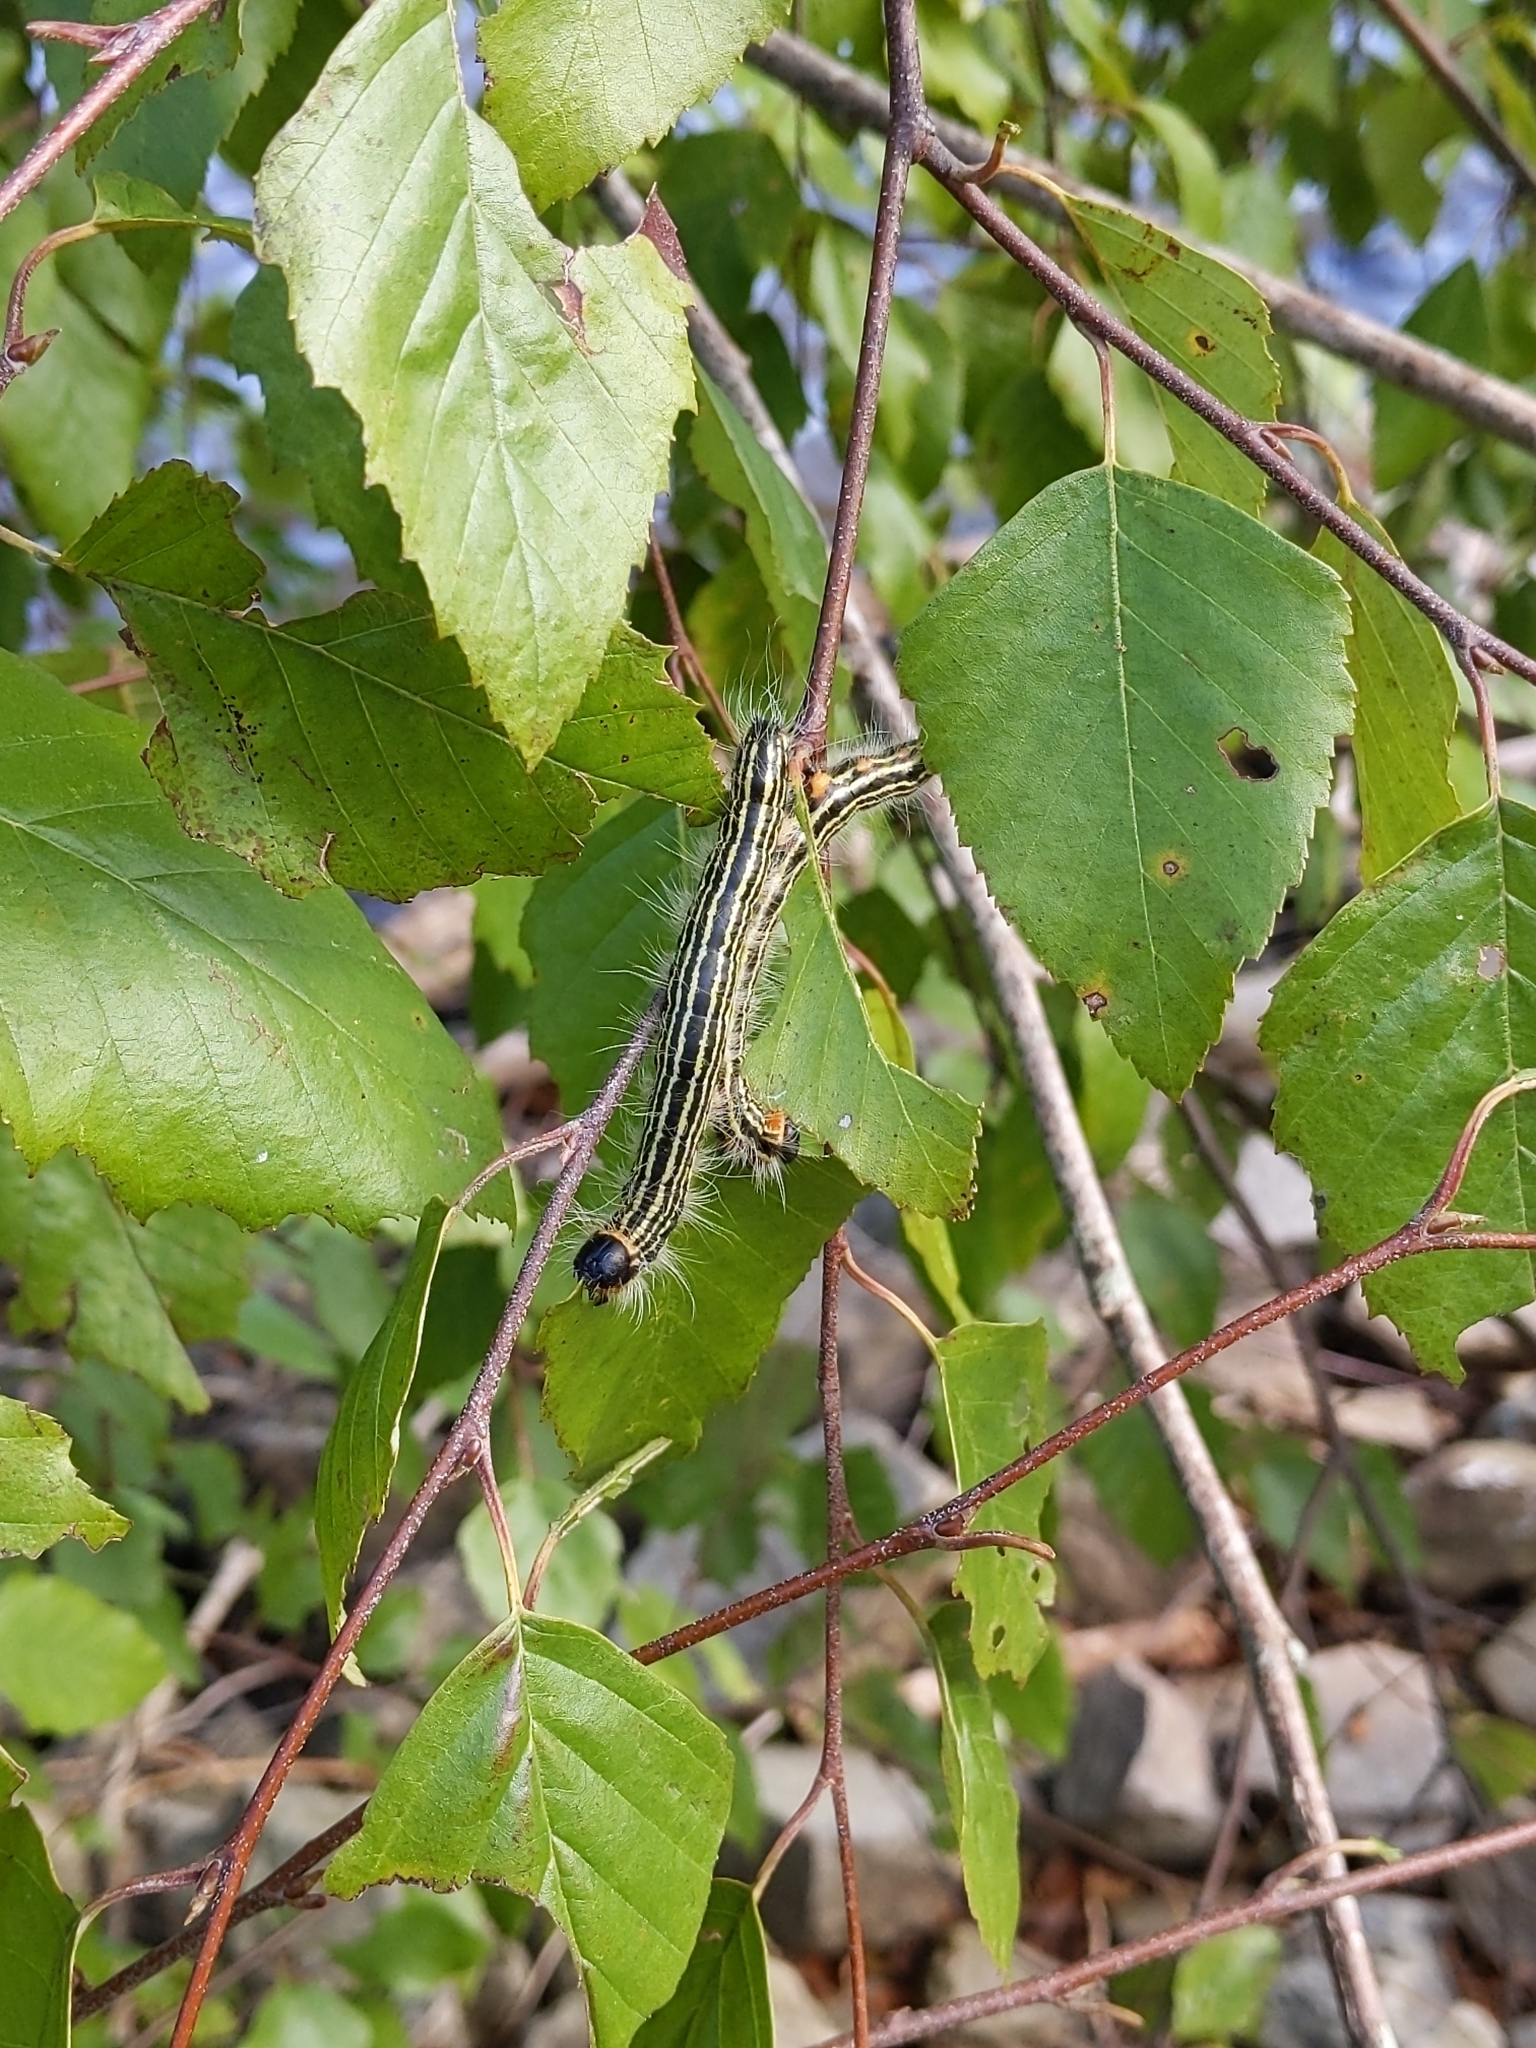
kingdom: Animalia
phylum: Arthropoda
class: Insecta
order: Lepidoptera
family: Notodontidae
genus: Datana
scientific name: Datana ministra
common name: Yellow-necked caterpillar moth
